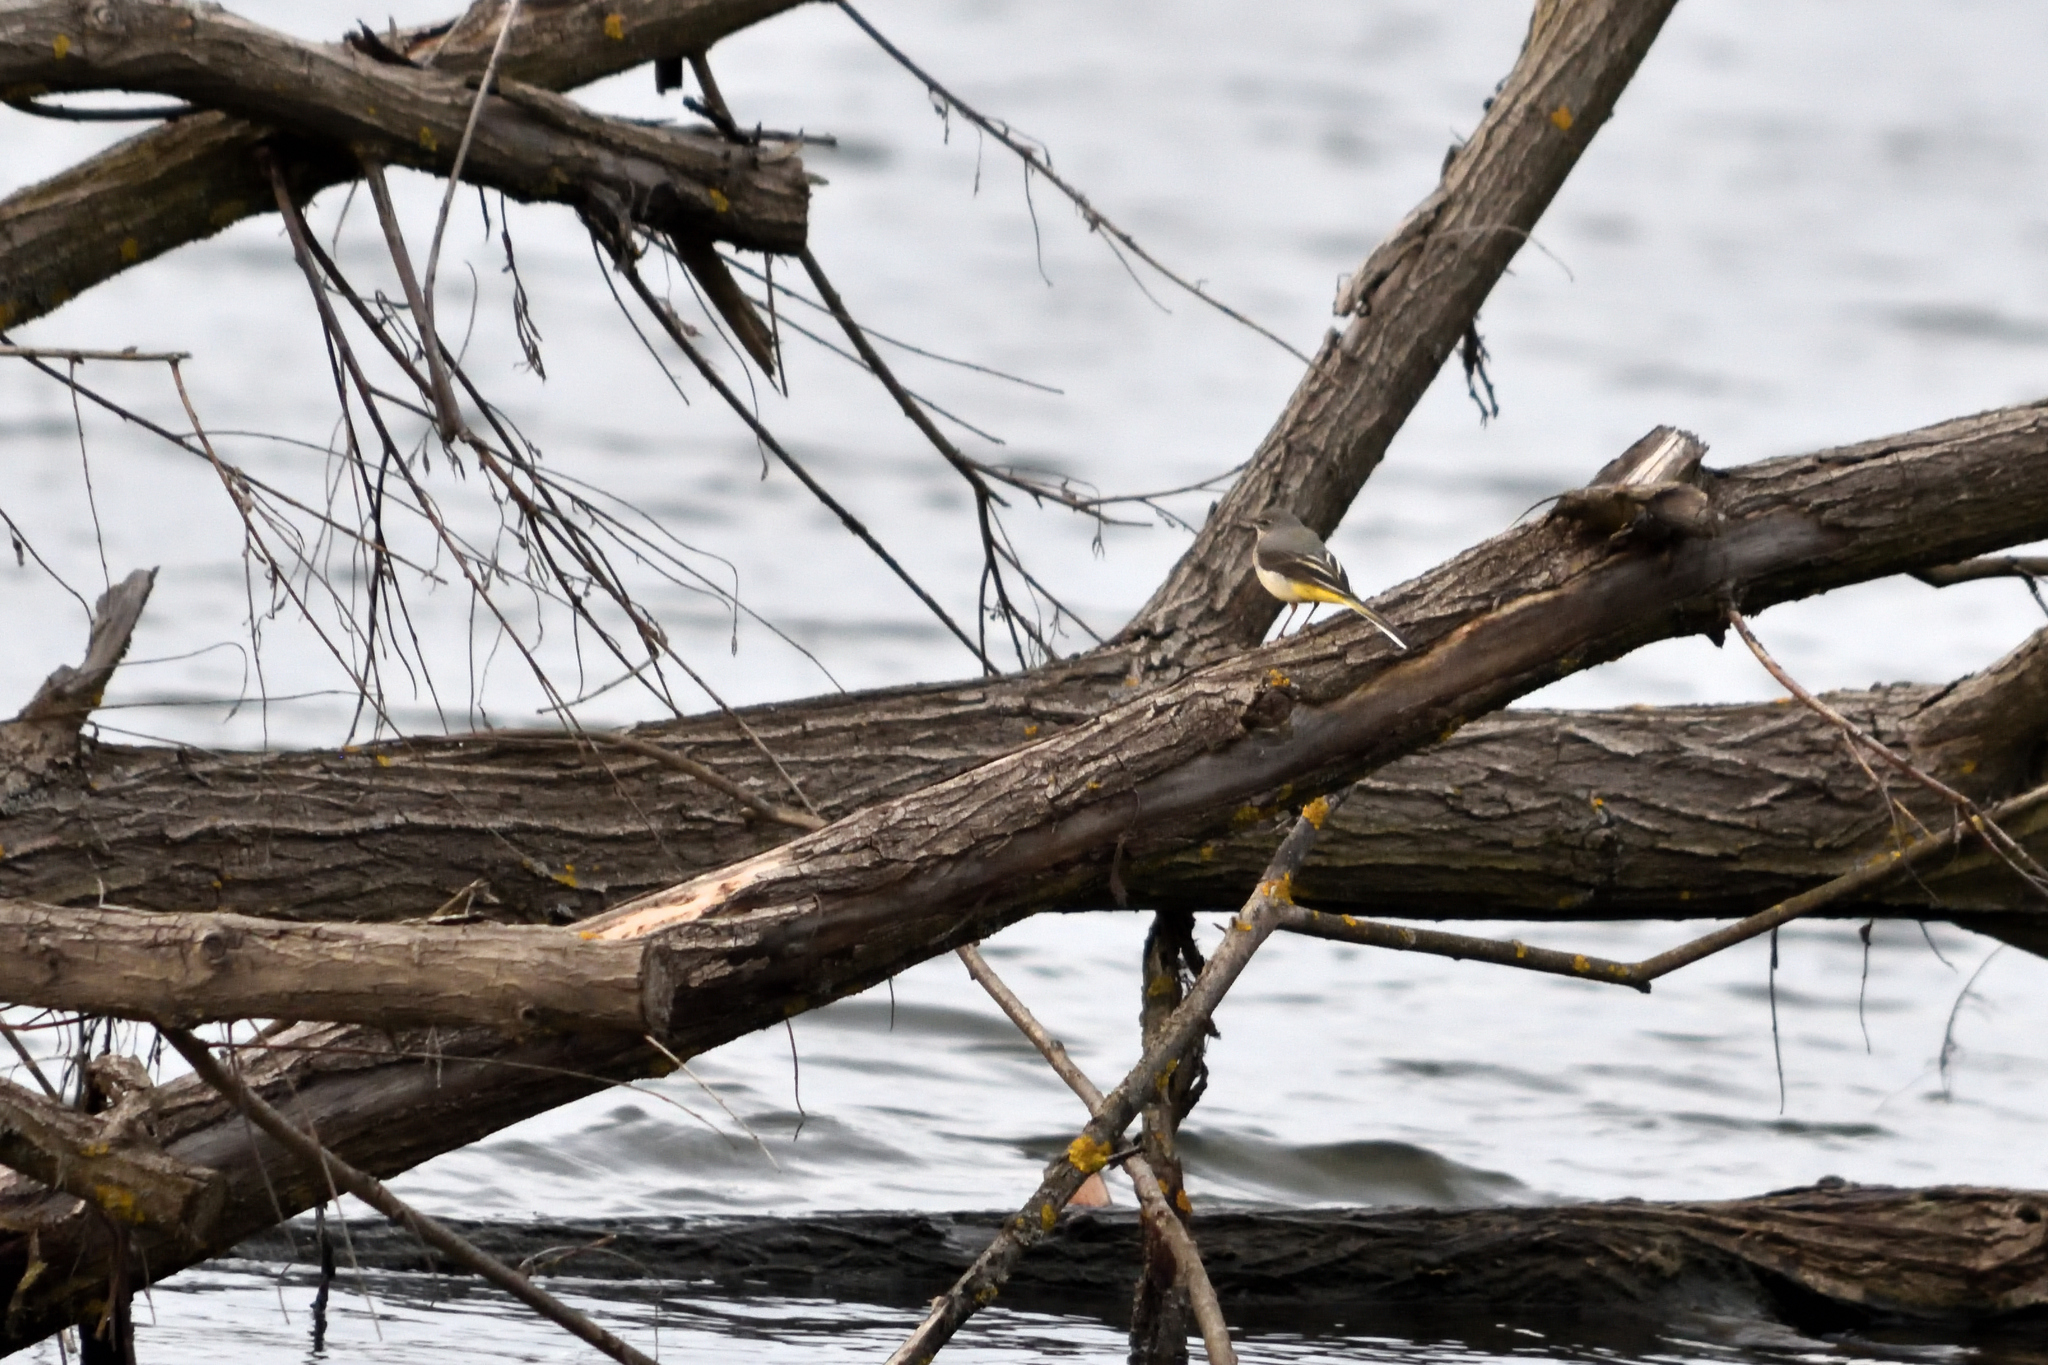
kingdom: Animalia
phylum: Chordata
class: Aves
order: Passeriformes
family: Motacillidae
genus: Motacilla
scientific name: Motacilla cinerea
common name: Grey wagtail
